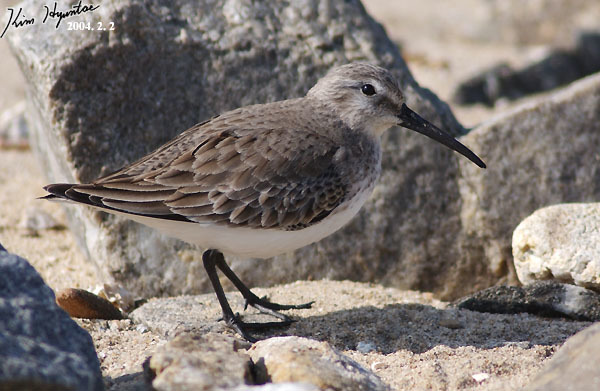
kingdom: Animalia
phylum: Chordata
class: Aves
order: Charadriiformes
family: Scolopacidae
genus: Calidris
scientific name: Calidris alpina
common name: Dunlin
